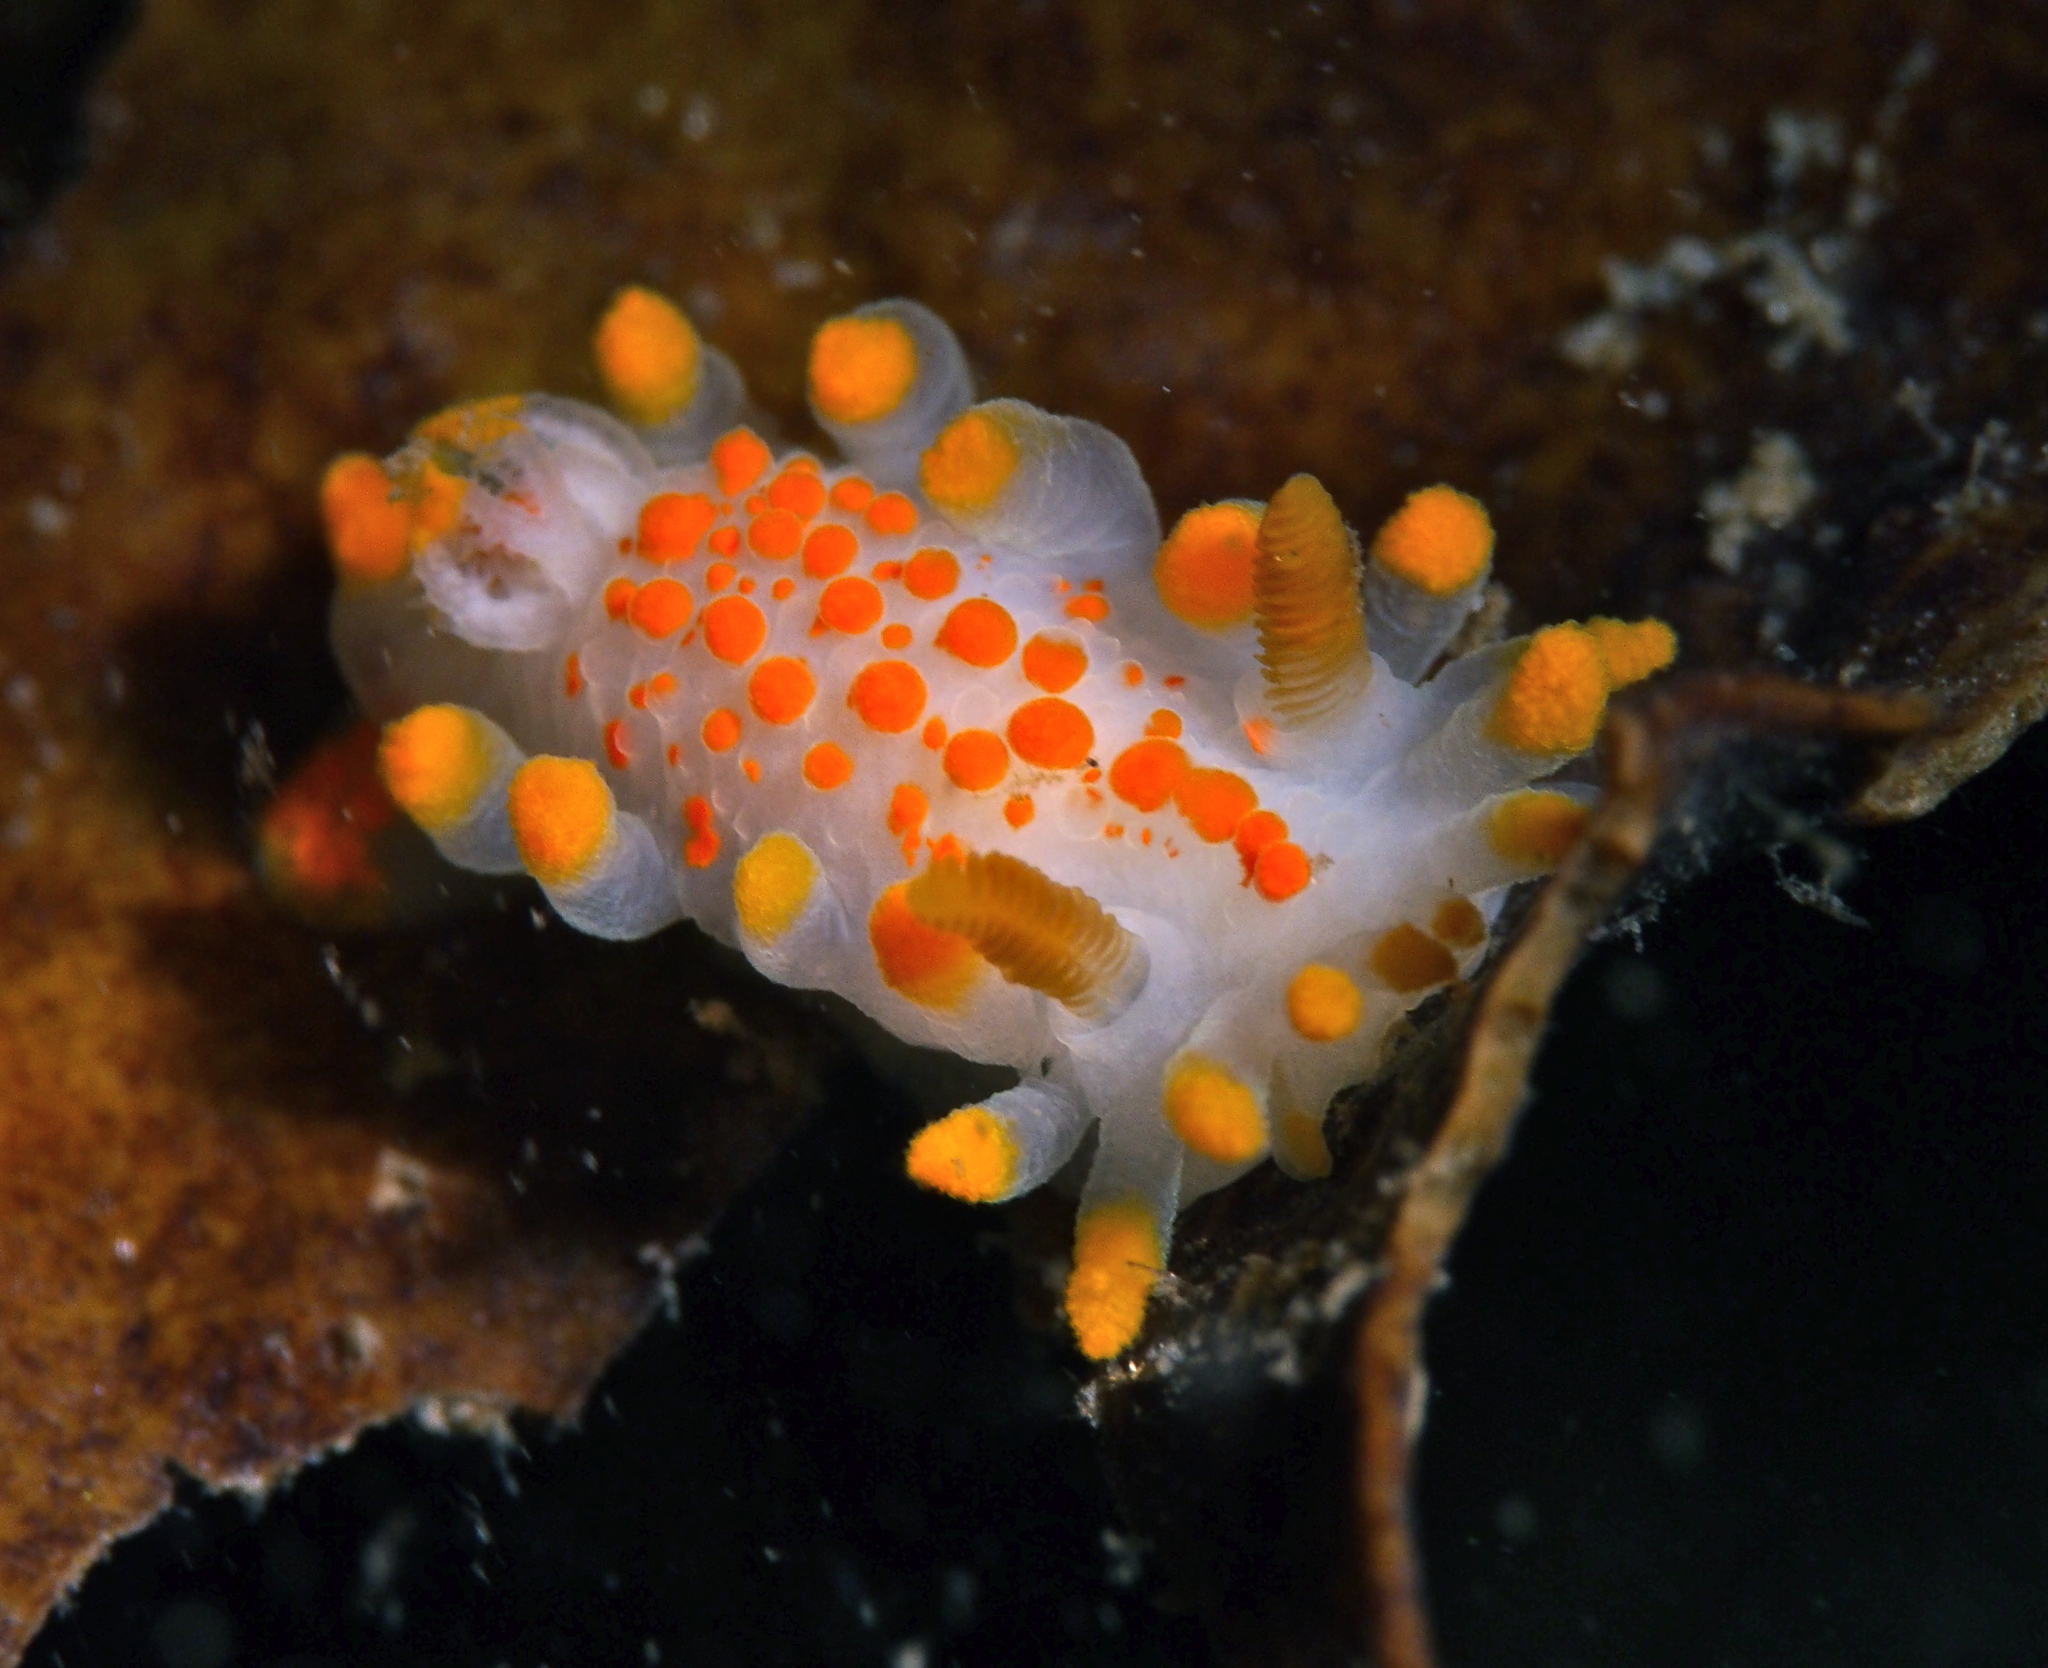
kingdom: Animalia
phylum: Mollusca
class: Gastropoda
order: Nudibranchia
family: Polyceridae
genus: Limacia
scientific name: Limacia clavigera
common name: Orange-clubbed sea slug
